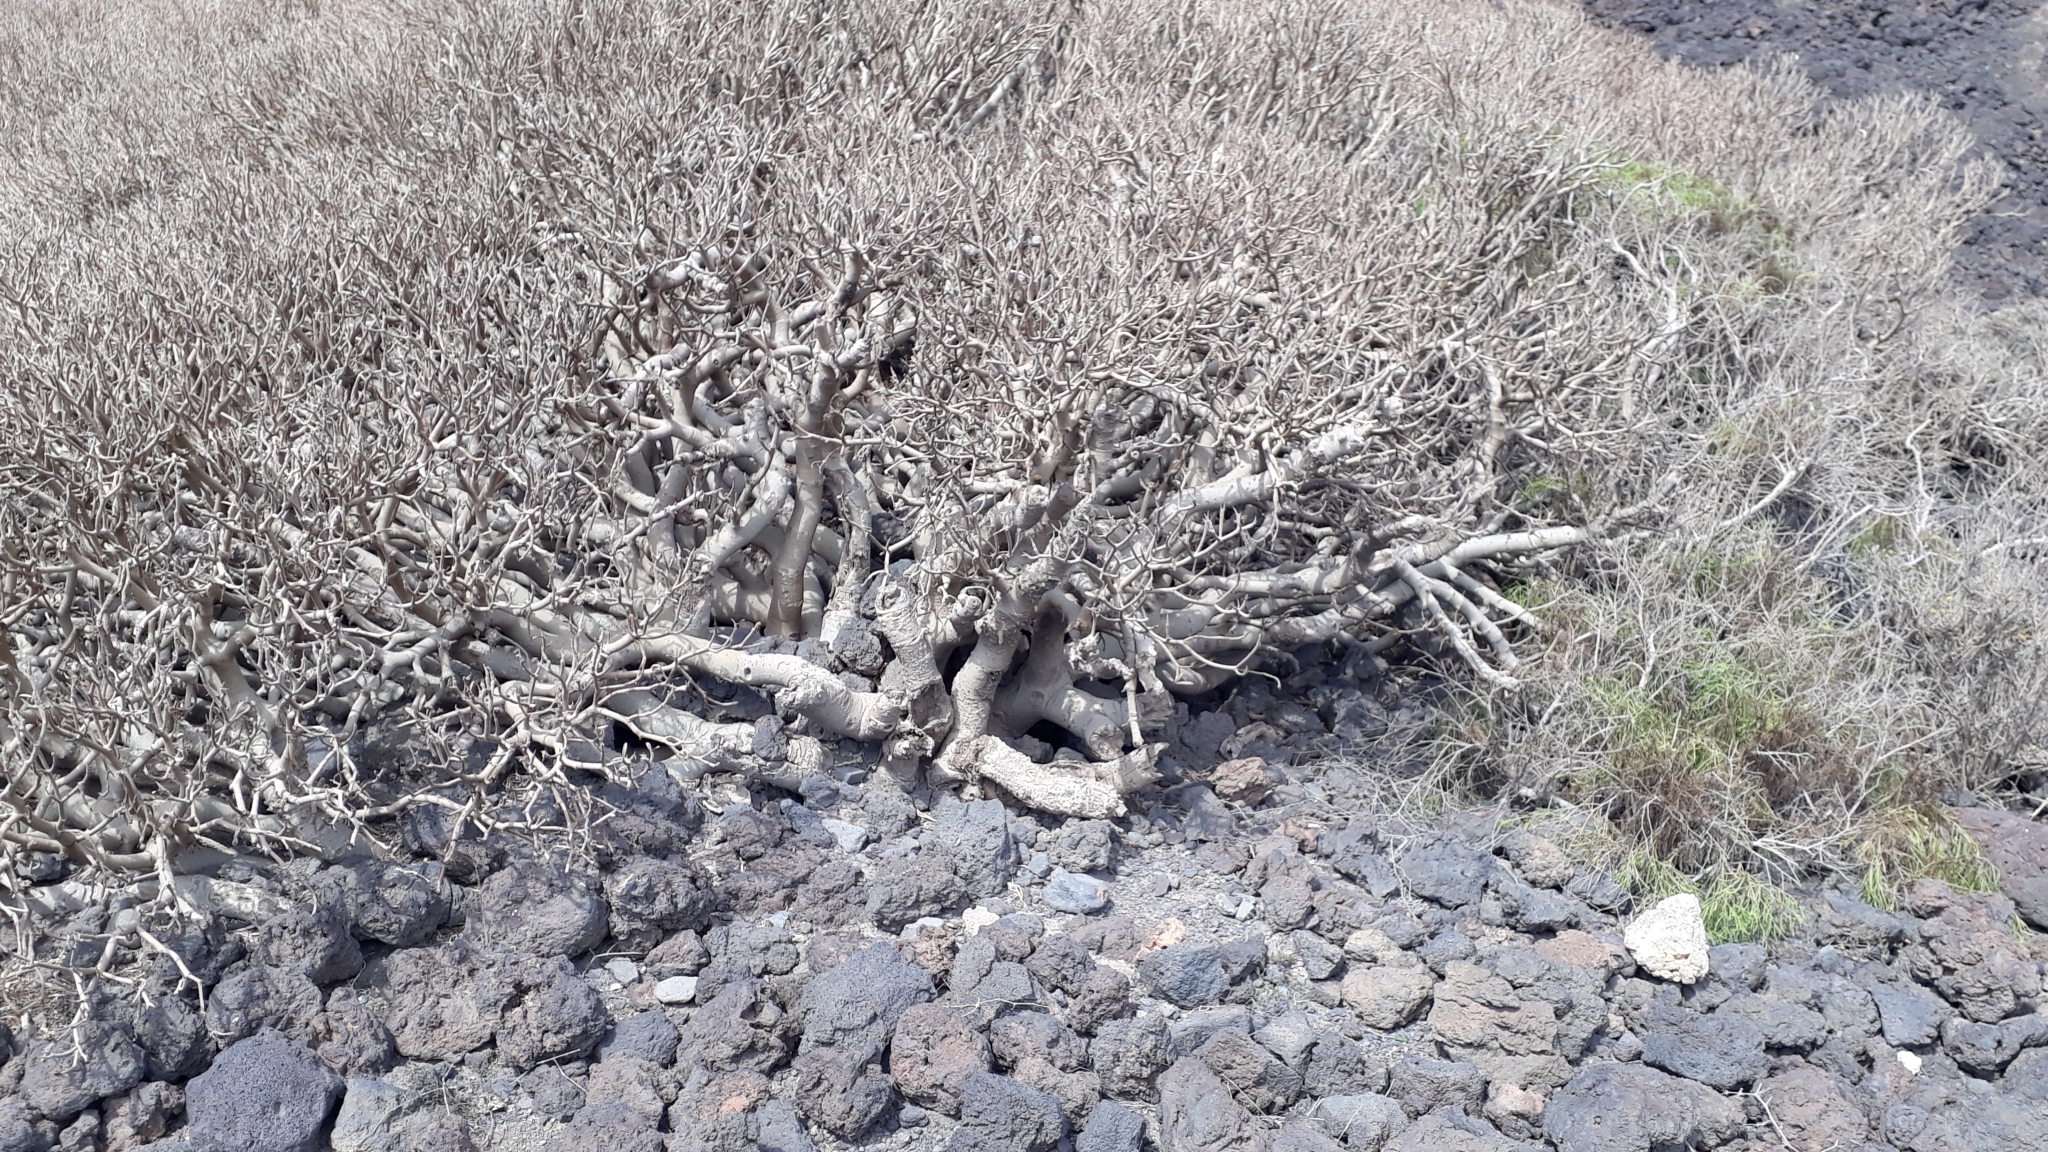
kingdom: Plantae
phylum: Tracheophyta
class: Magnoliopsida
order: Malpighiales
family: Euphorbiaceae
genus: Euphorbia
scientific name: Euphorbia balsamifera
